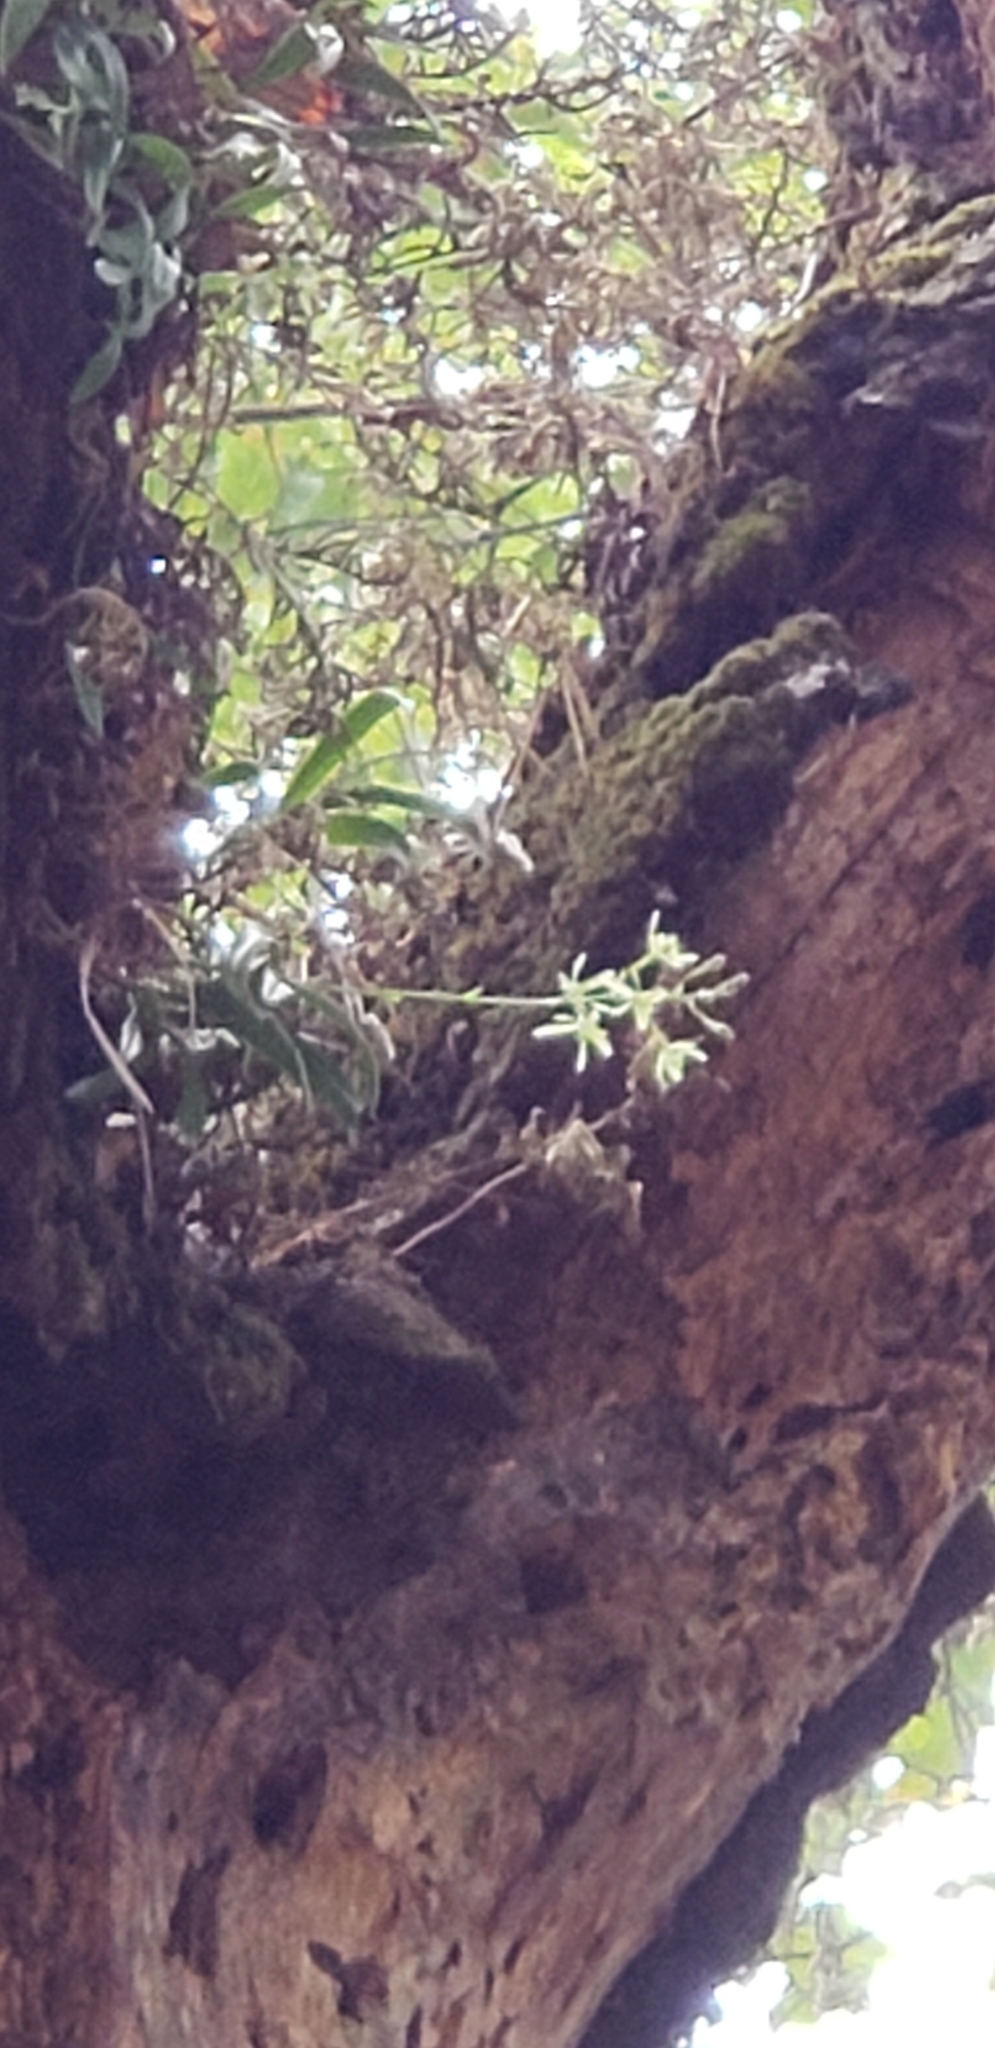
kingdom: Plantae
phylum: Tracheophyta
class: Liliopsida
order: Asparagales
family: Orchidaceae
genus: Epidendrum
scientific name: Epidendrum conopseum
